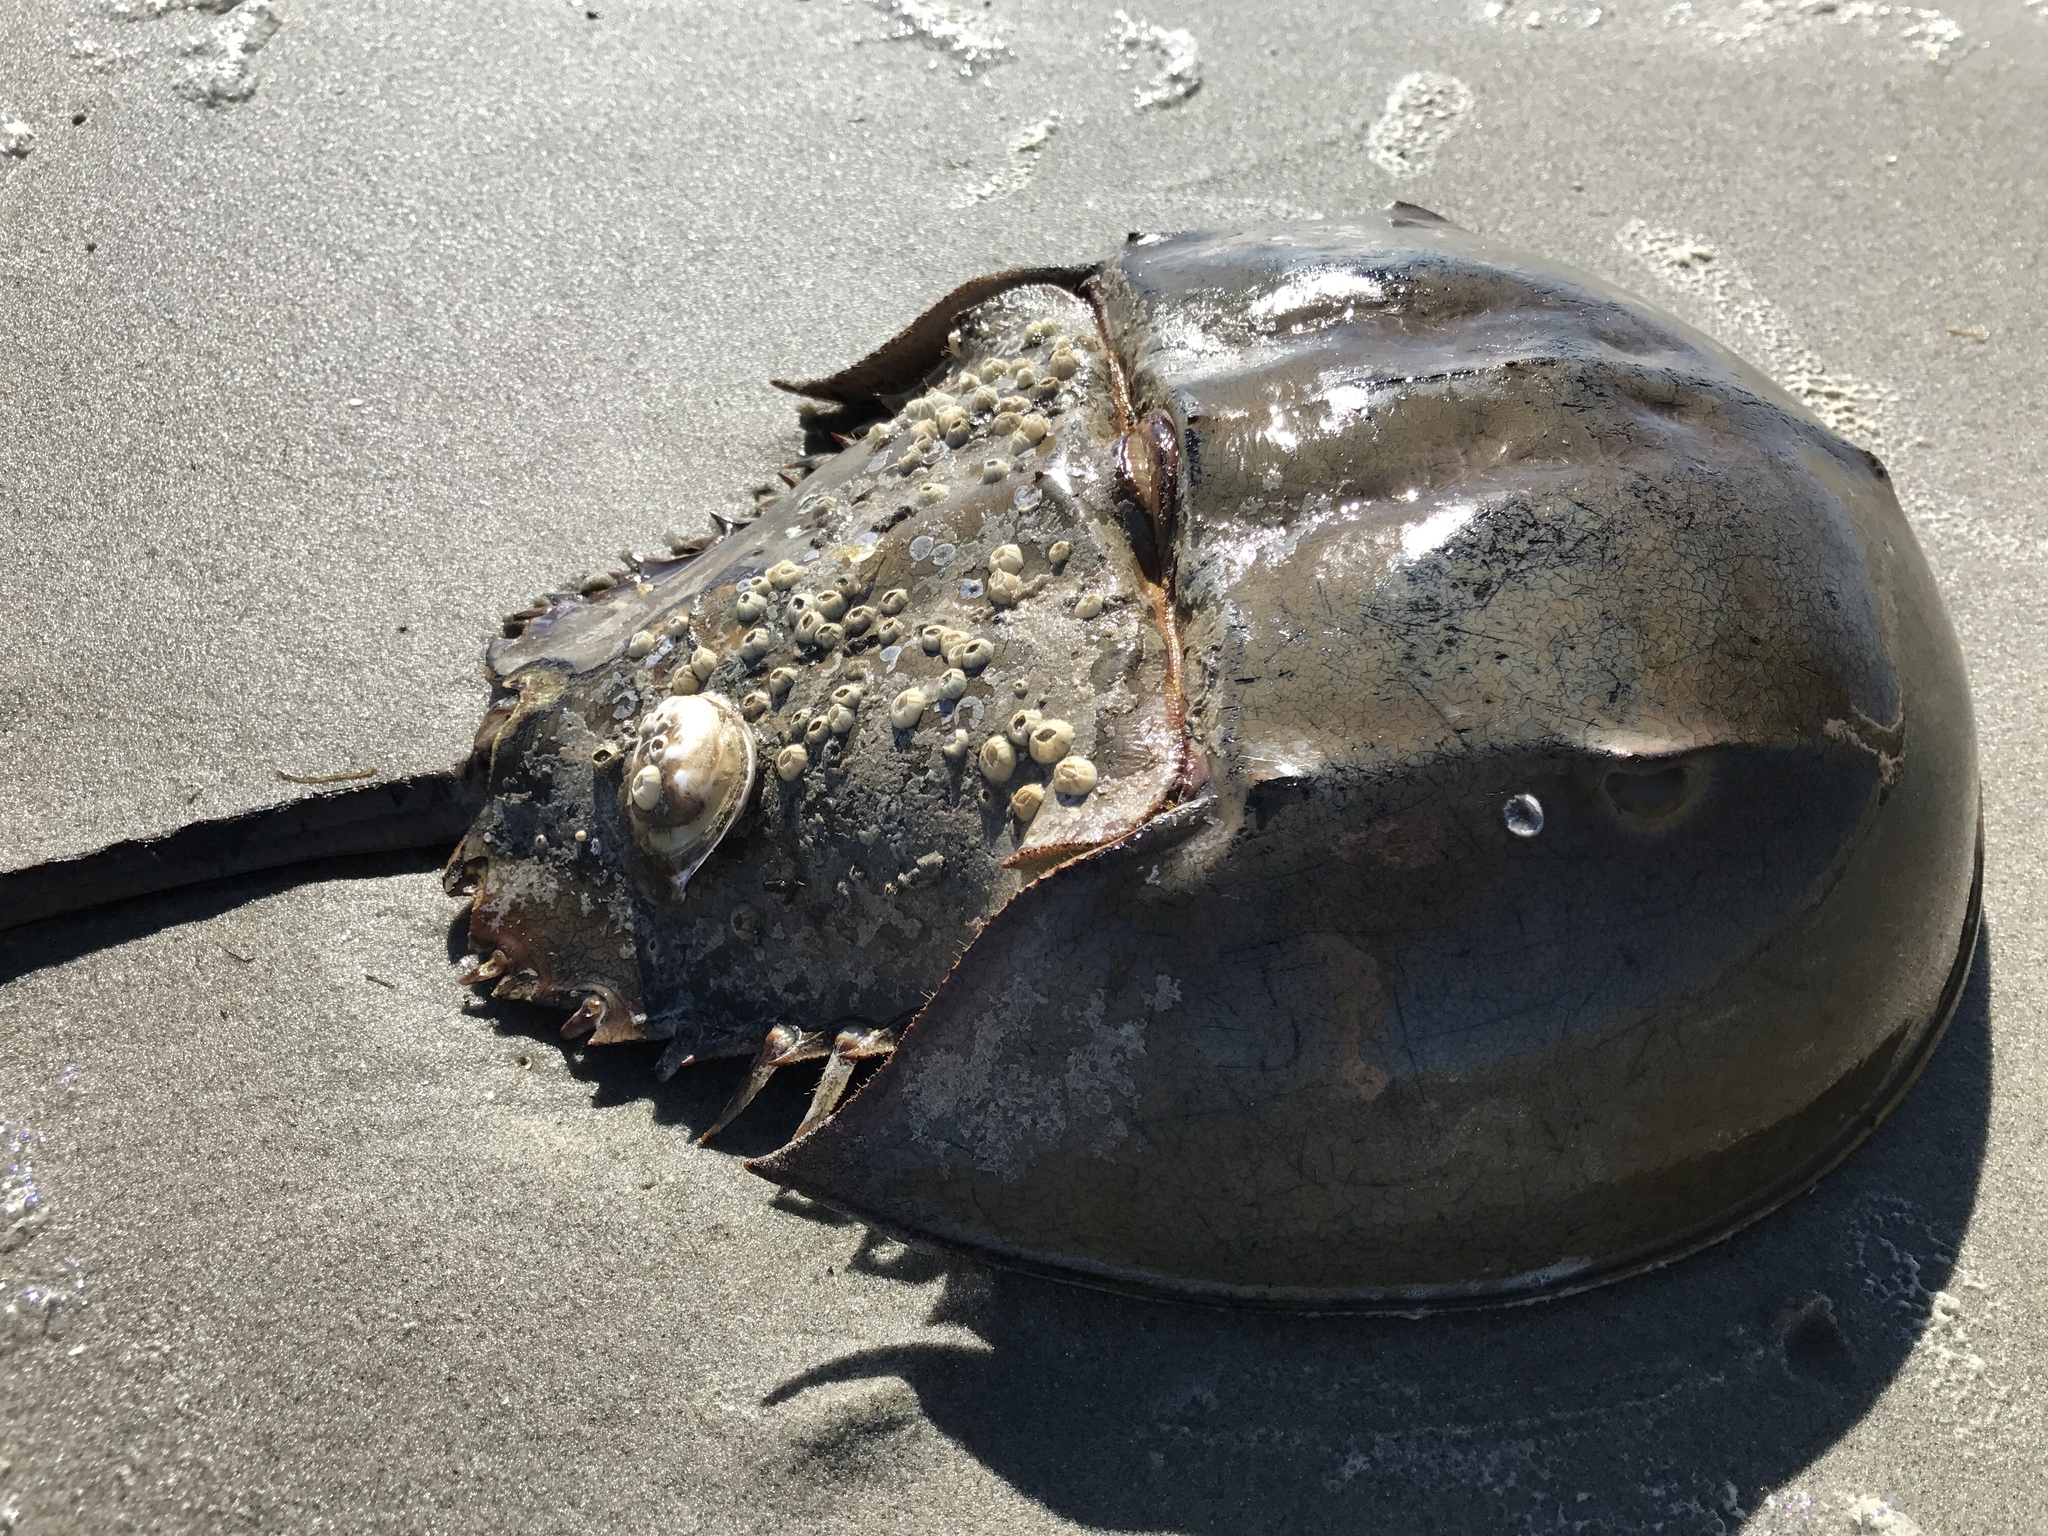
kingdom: Animalia
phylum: Arthropoda
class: Merostomata
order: Xiphosurida
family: Limulidae
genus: Limulus
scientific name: Limulus polyphemus
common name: Horseshoe crab
